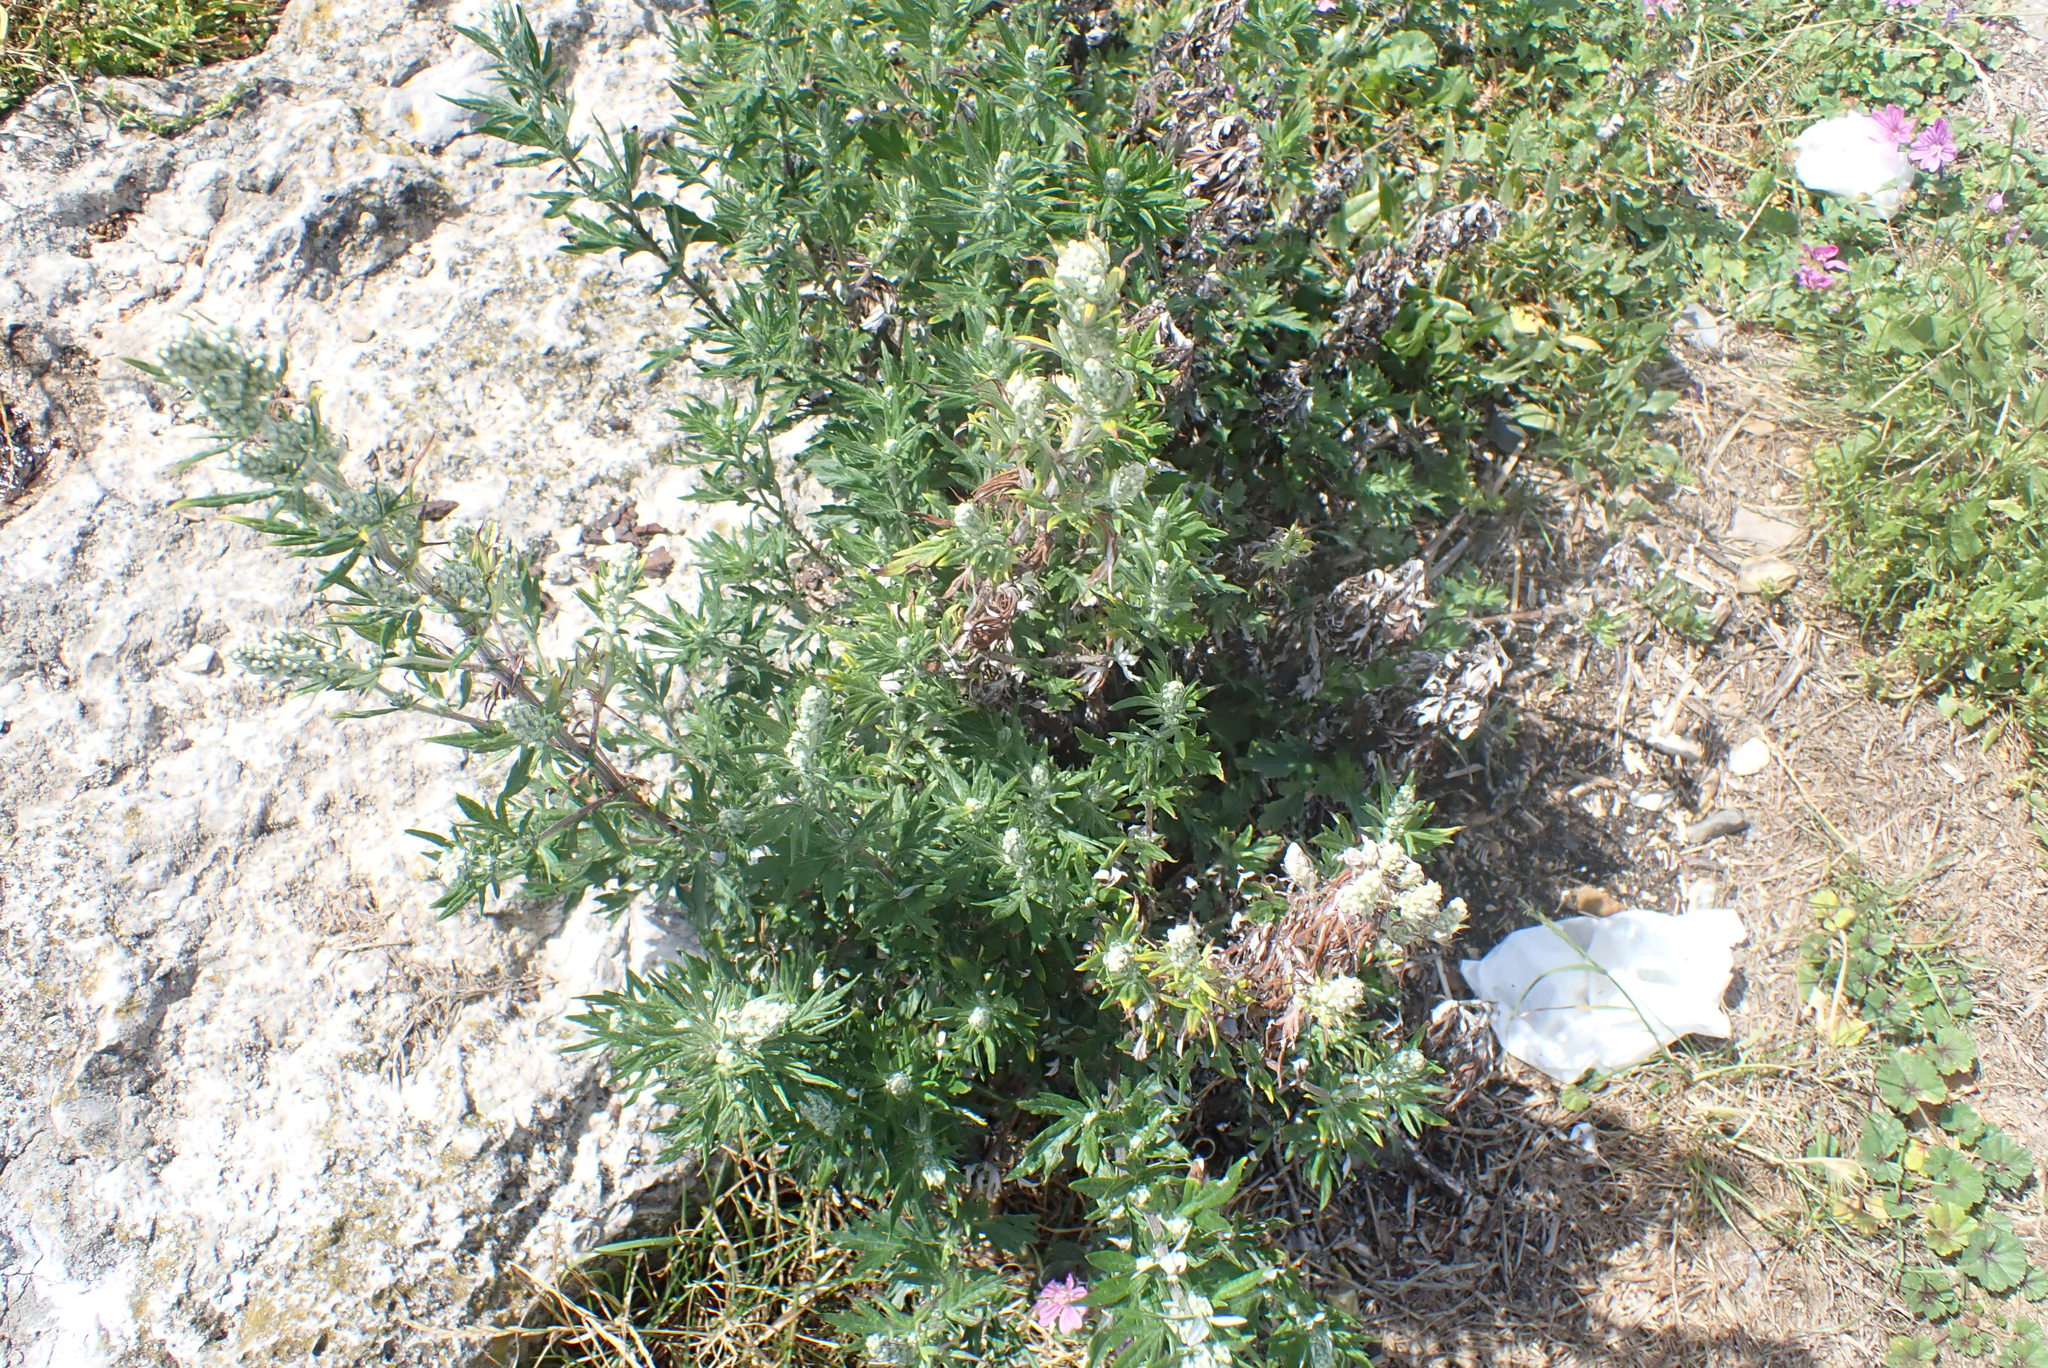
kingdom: Plantae
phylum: Tracheophyta
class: Magnoliopsida
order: Asterales
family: Asteraceae
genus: Artemisia
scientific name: Artemisia vulgaris
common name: Mugwort
